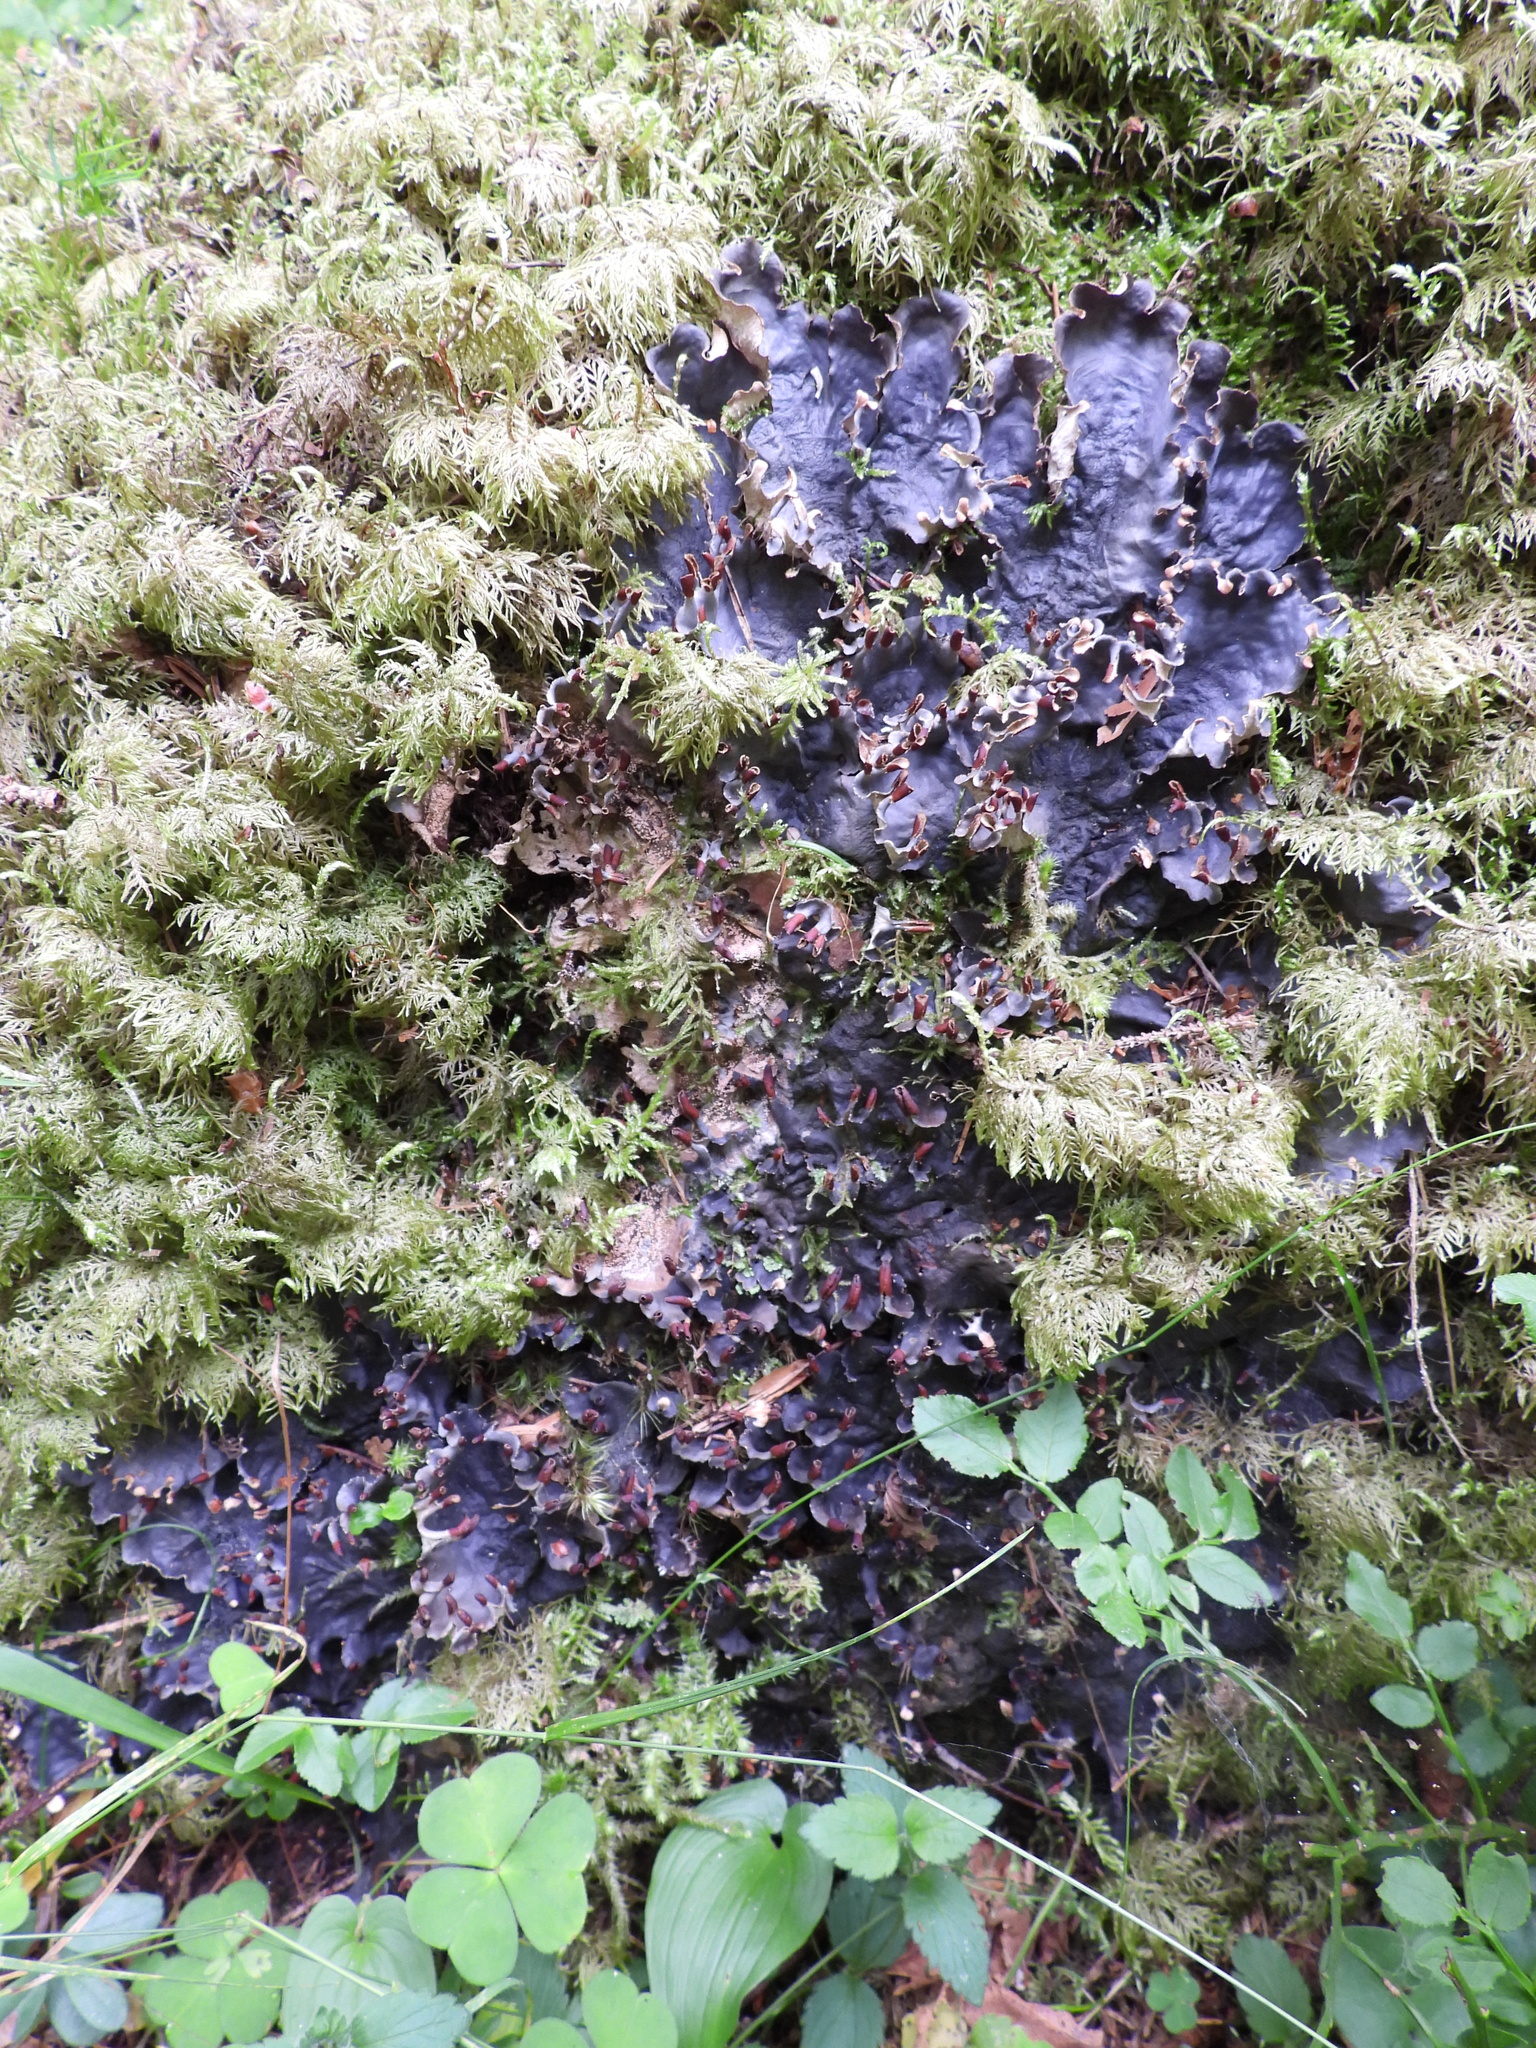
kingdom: Fungi
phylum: Ascomycota
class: Lecanoromycetes
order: Peltigerales
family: Peltigeraceae
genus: Peltigera
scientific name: Peltigera degenii
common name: Frog pelt lichen
